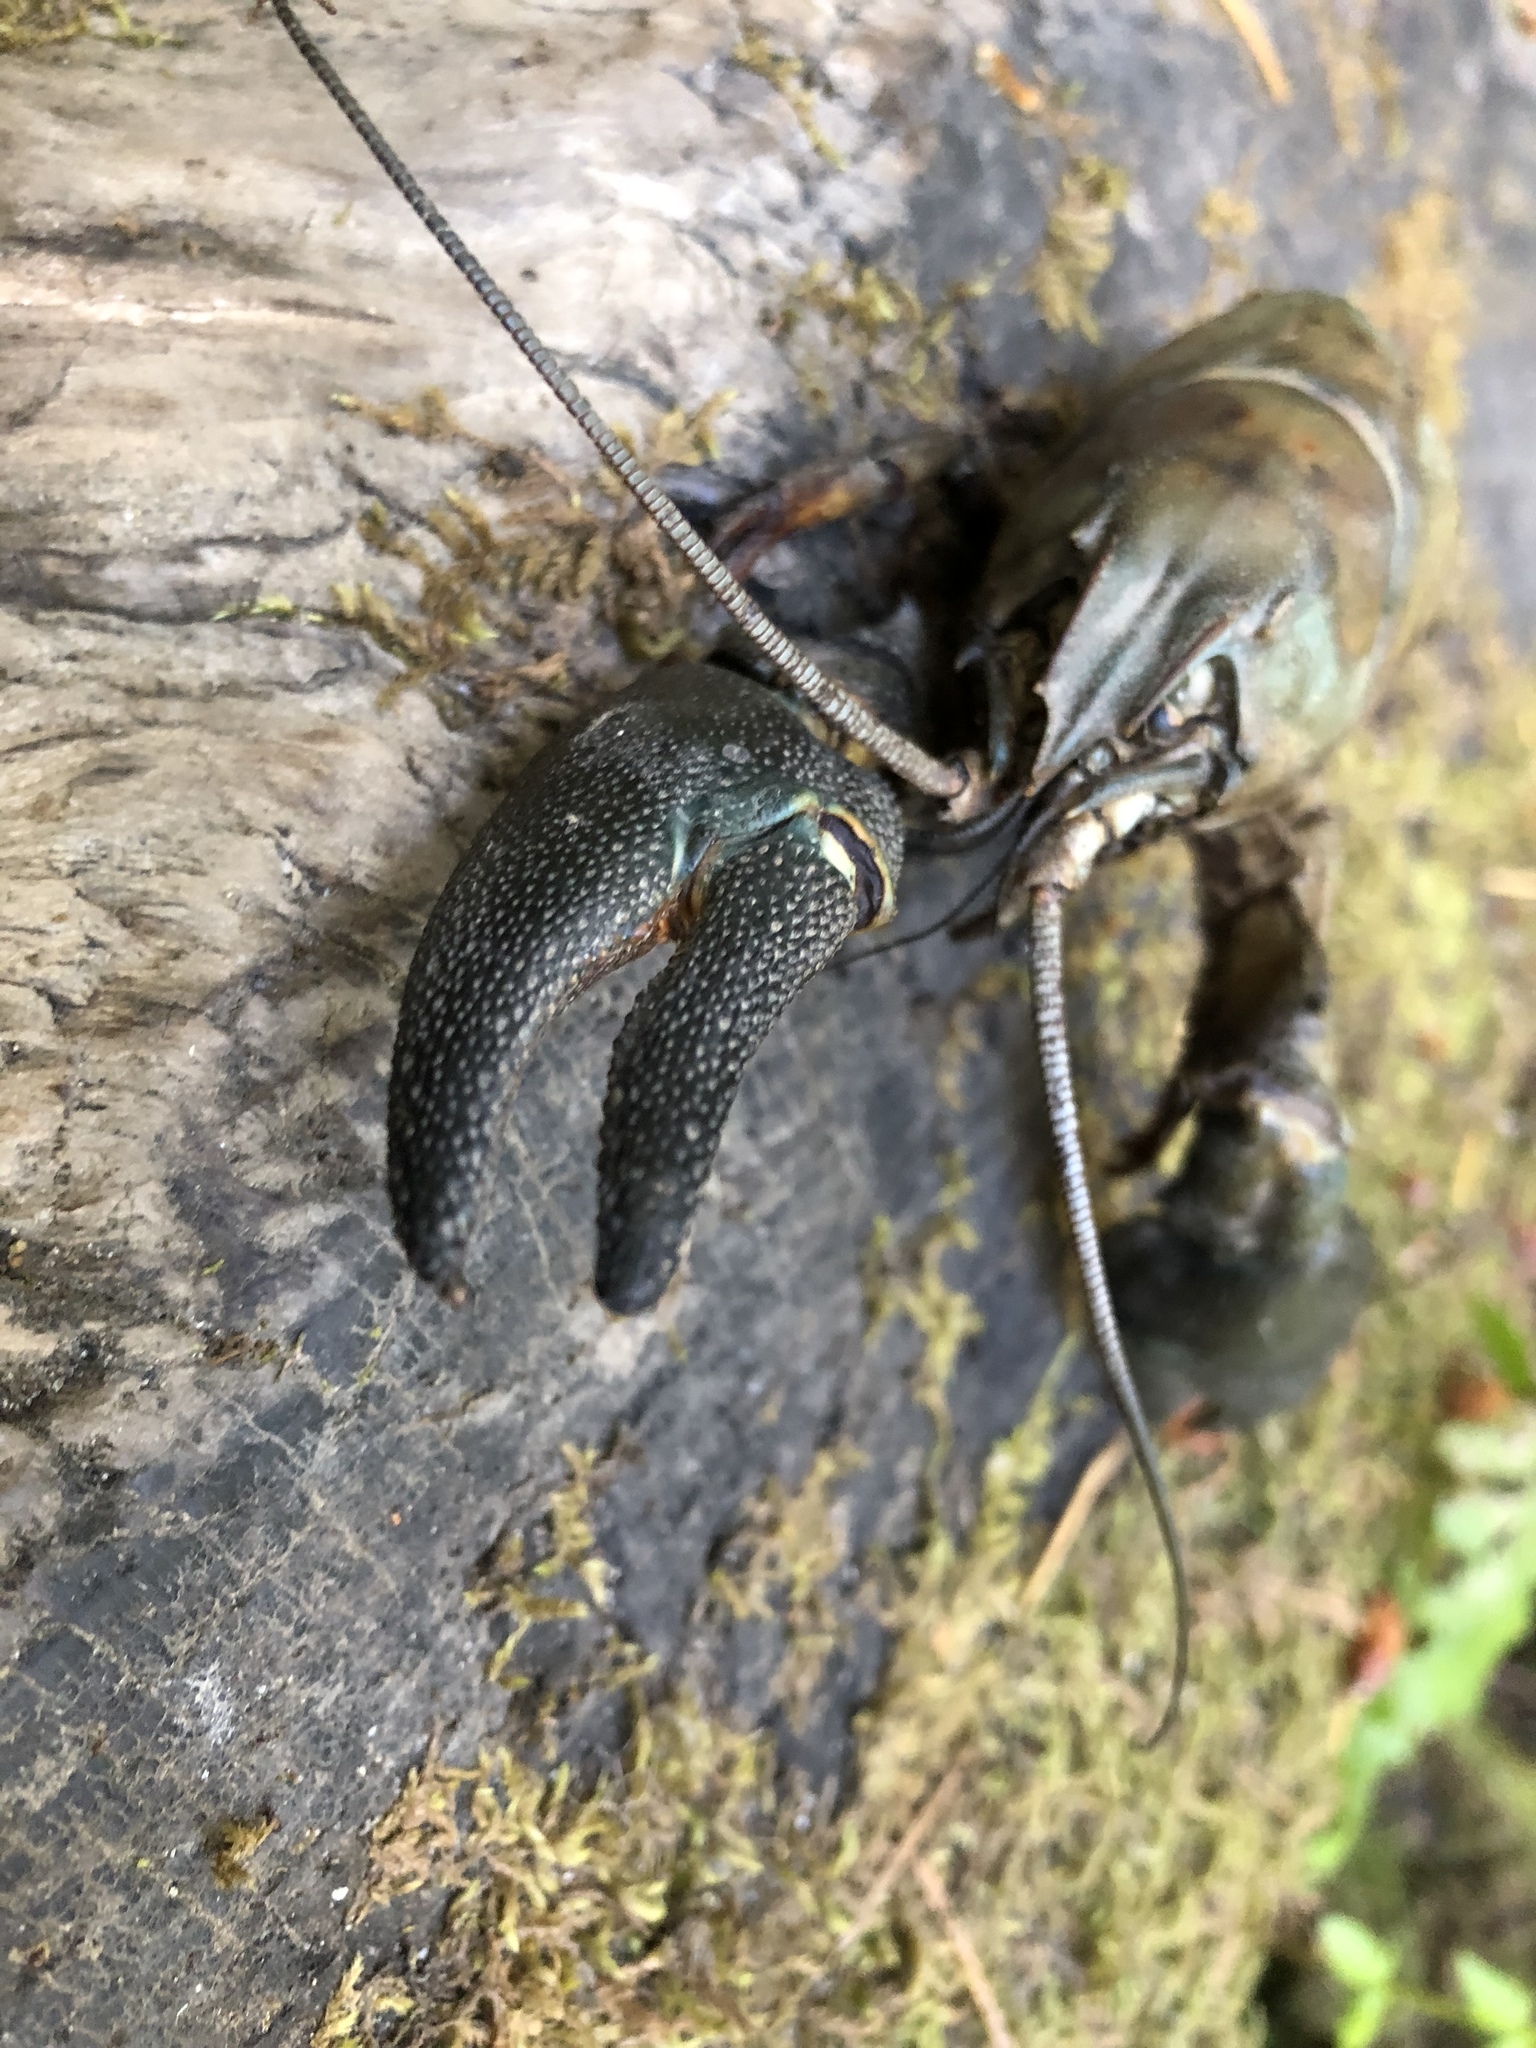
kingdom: Animalia
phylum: Arthropoda
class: Malacostraca
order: Decapoda
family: Astacidae
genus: Pacifastacus
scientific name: Pacifastacus leniusculus
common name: Signal crayfish
